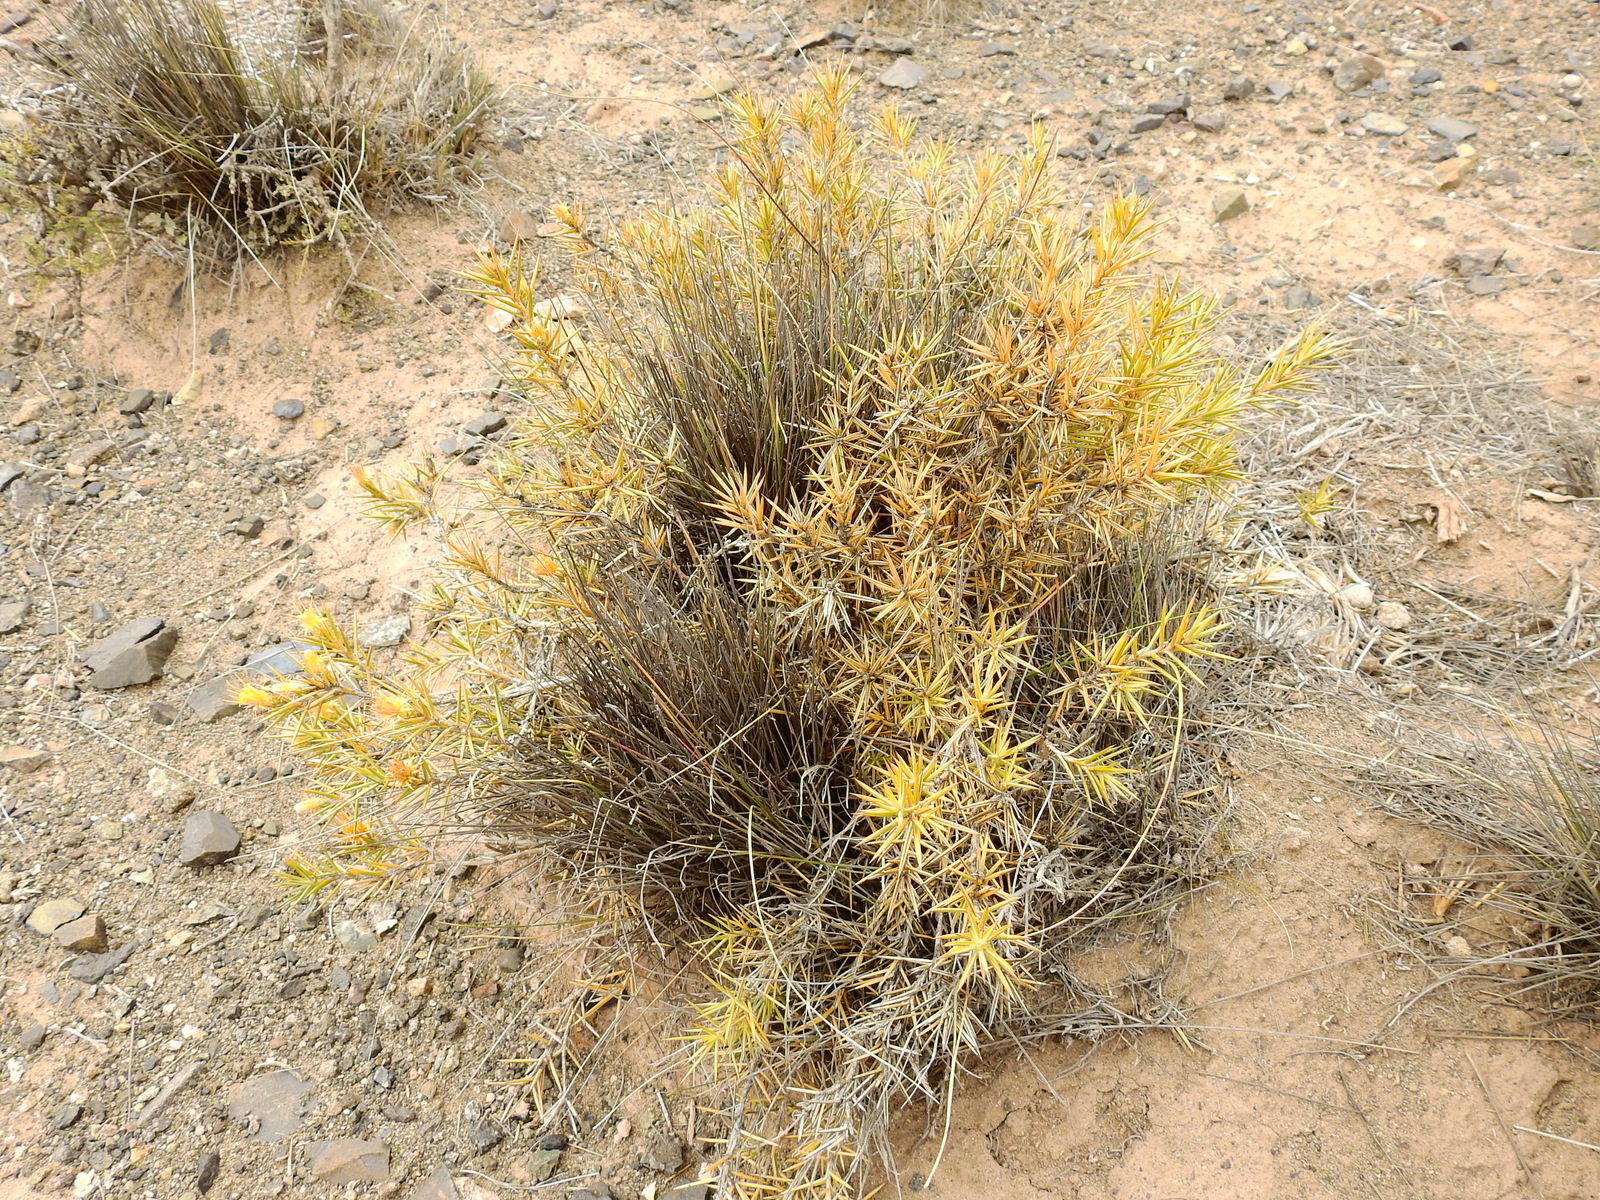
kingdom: Plantae
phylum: Tracheophyta
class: Magnoliopsida
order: Asterales
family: Asteraceae
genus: Chuquiraga
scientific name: Chuquiraga erinacea
